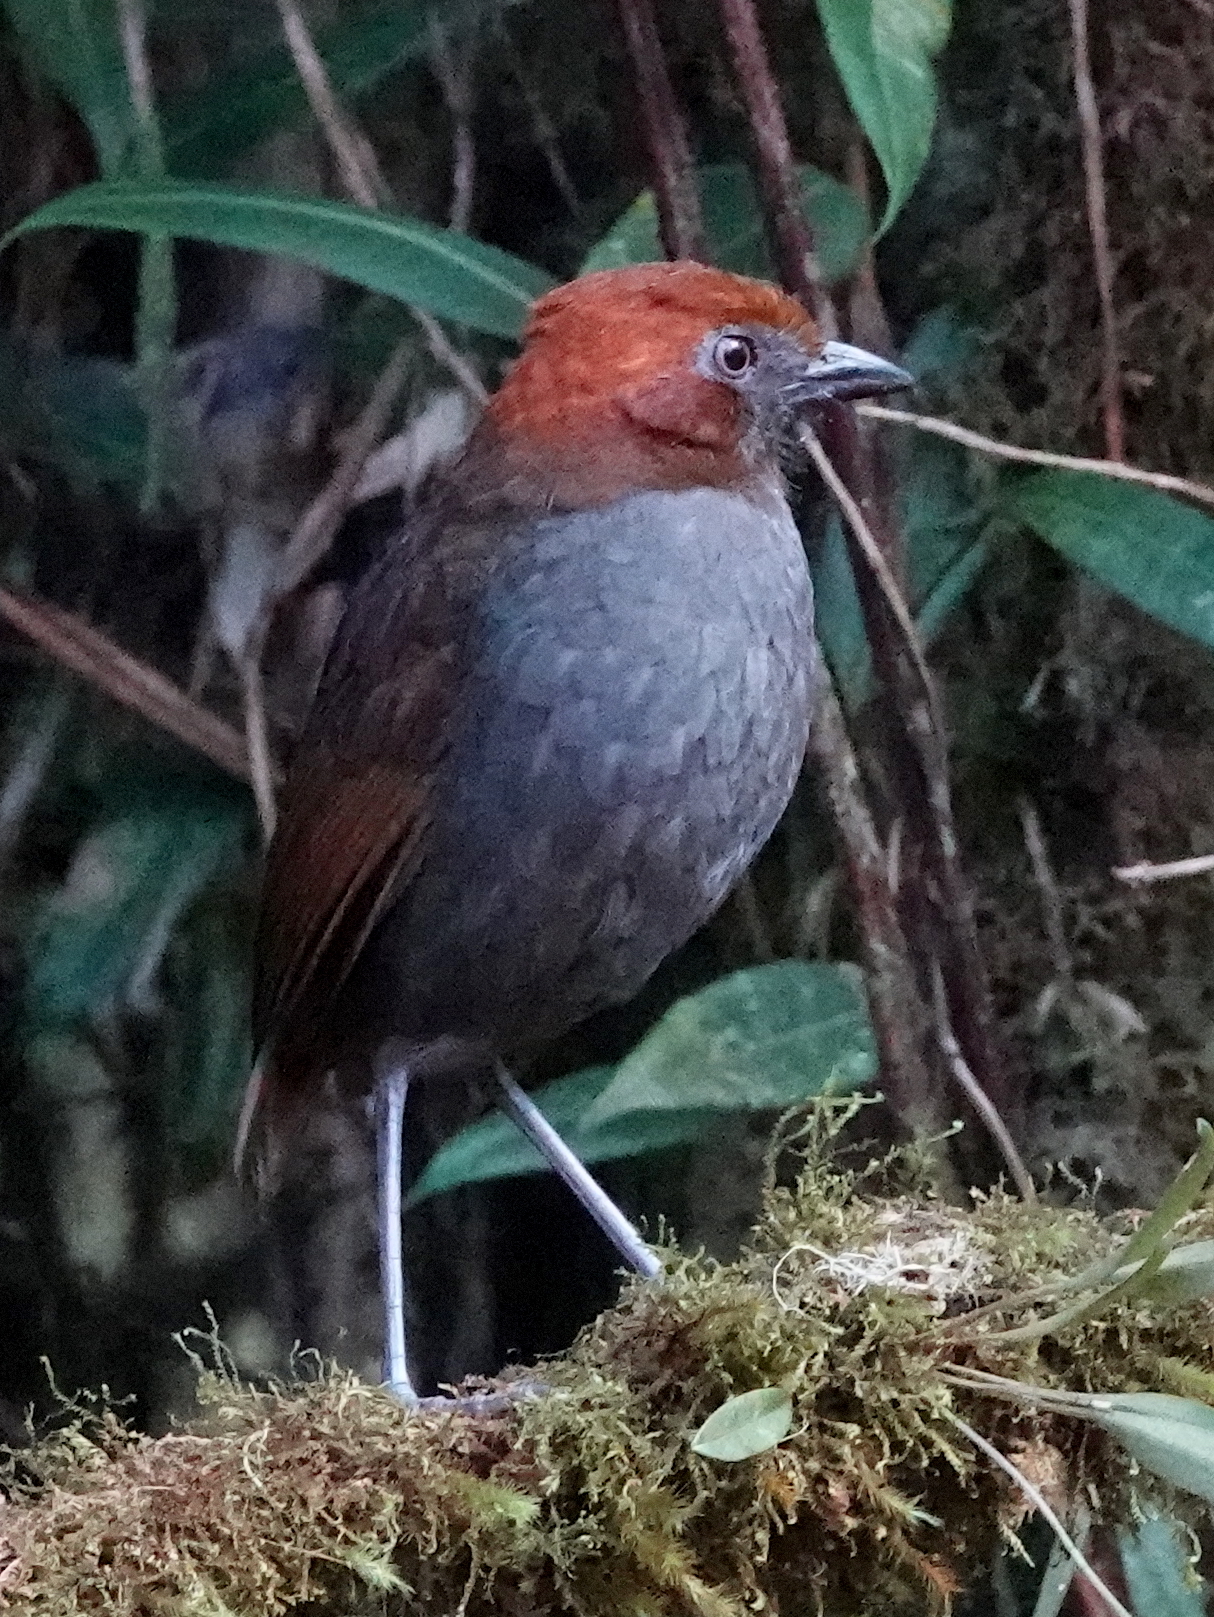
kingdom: Animalia
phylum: Chordata
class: Aves
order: Passeriformes
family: Grallariidae
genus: Grallaria
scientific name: Grallaria nuchalis
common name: Chestnut-naped antpitta
